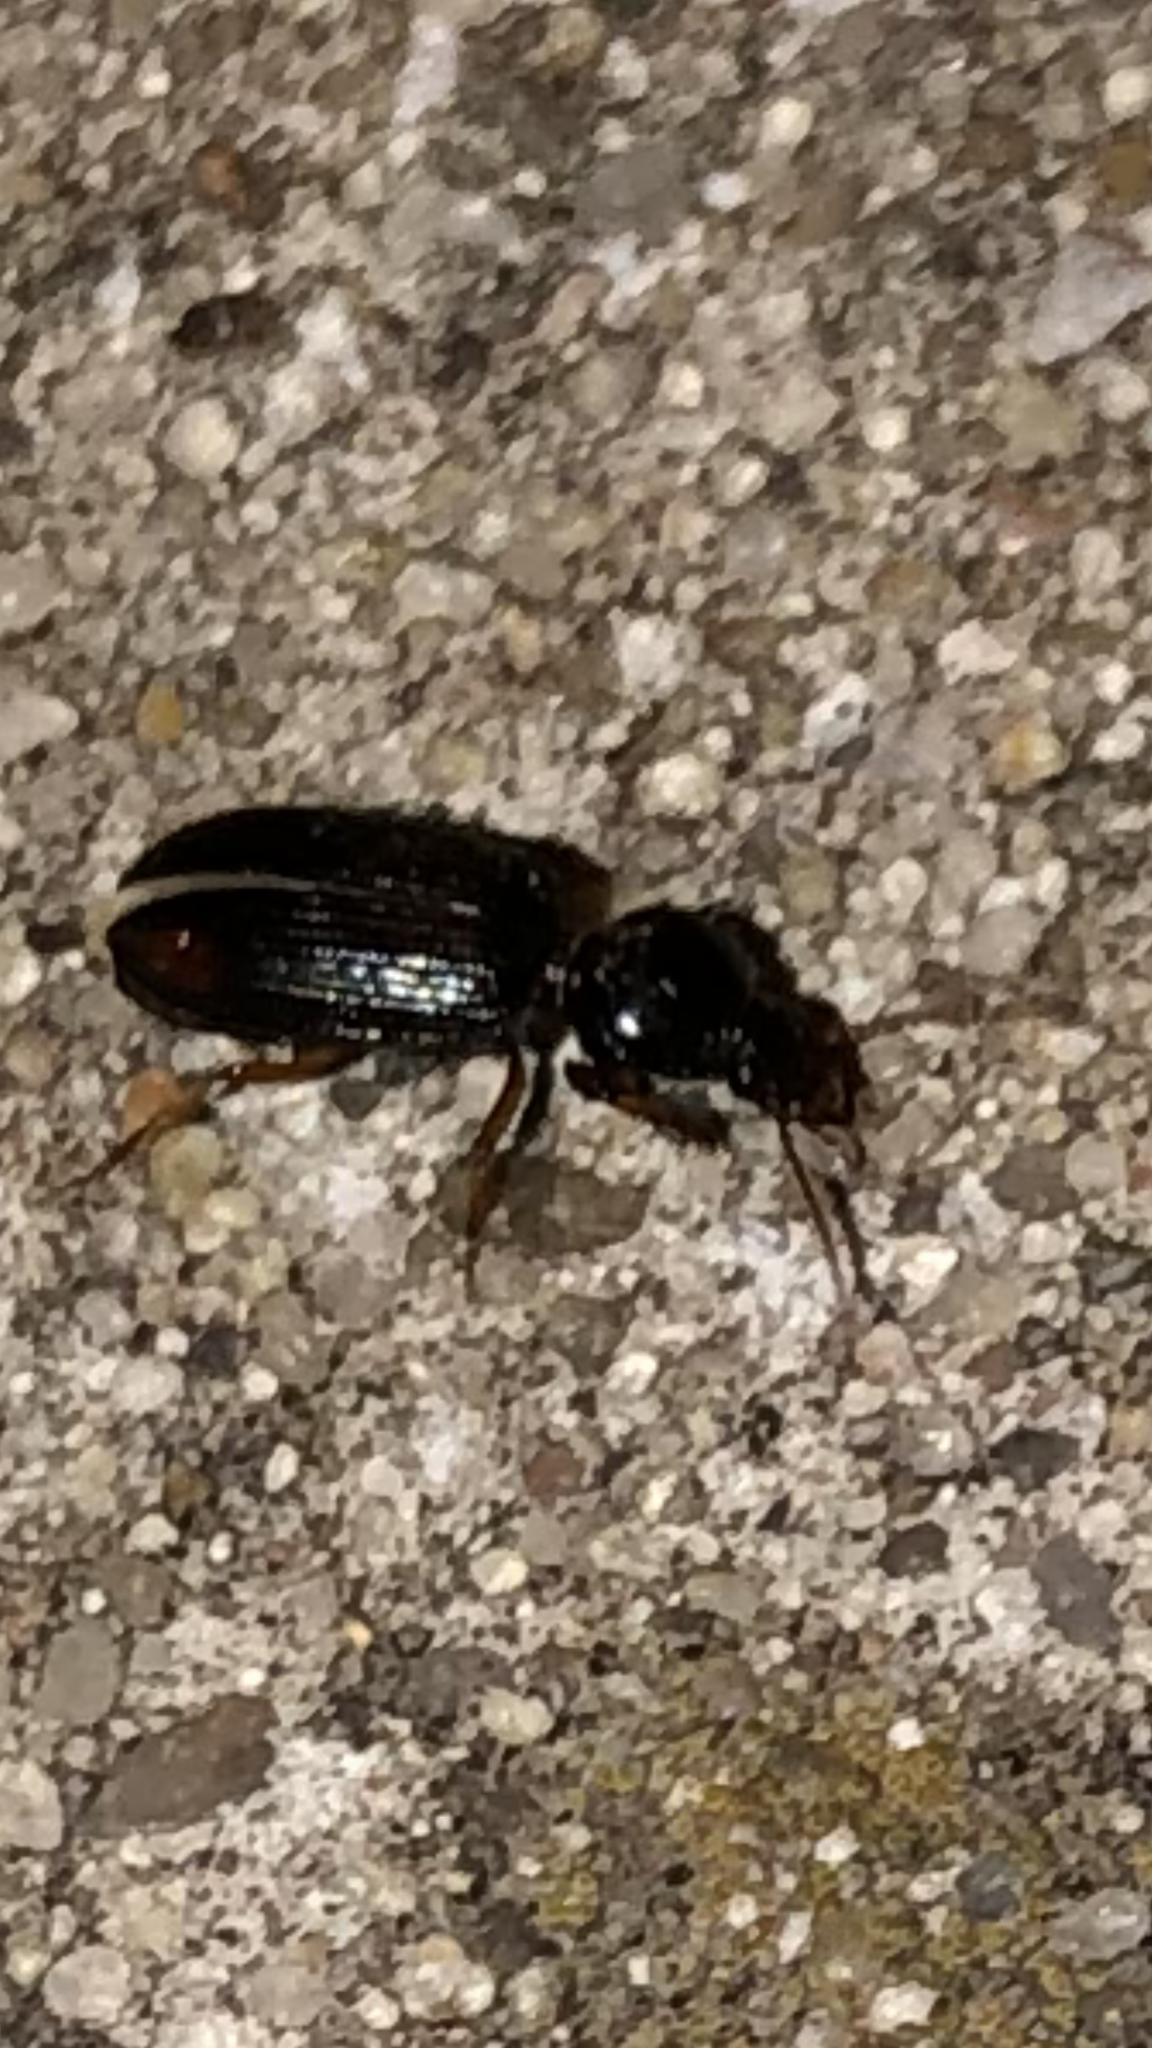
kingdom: Animalia
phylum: Arthropoda
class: Insecta
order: Coleoptera
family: Carabidae
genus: Aspidoglossa
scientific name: Aspidoglossa subangulata
